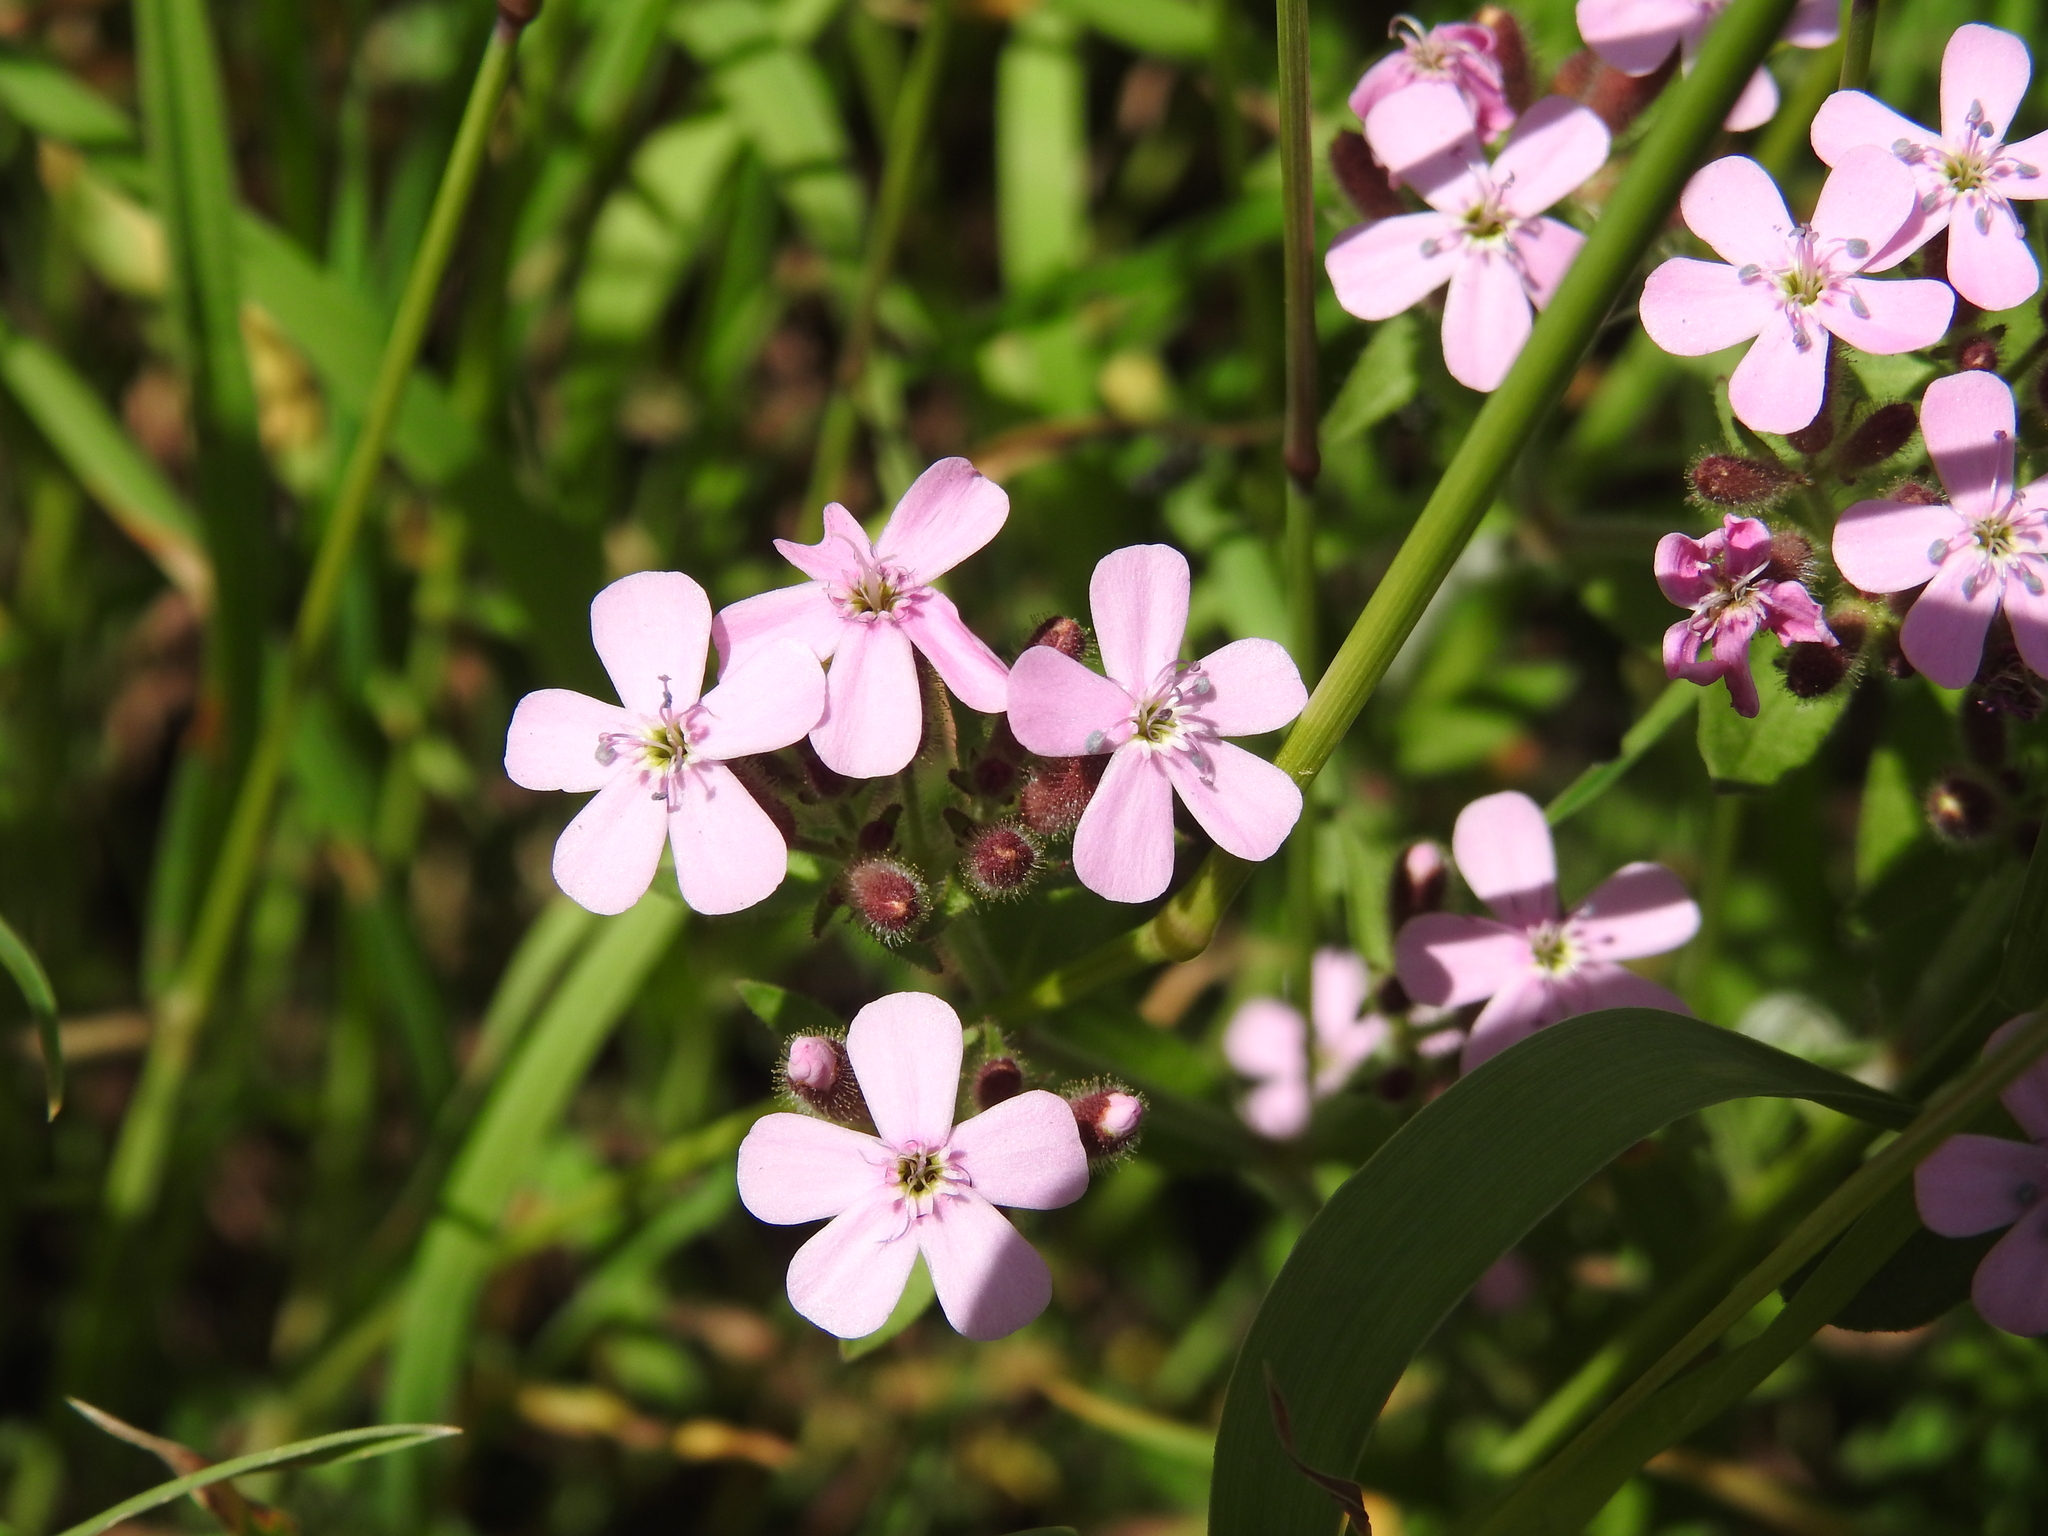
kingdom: Plantae
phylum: Tracheophyta
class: Magnoliopsida
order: Caryophyllales
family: Caryophyllaceae
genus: Saponaria
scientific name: Saponaria ocymoides
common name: Rock soapwort
